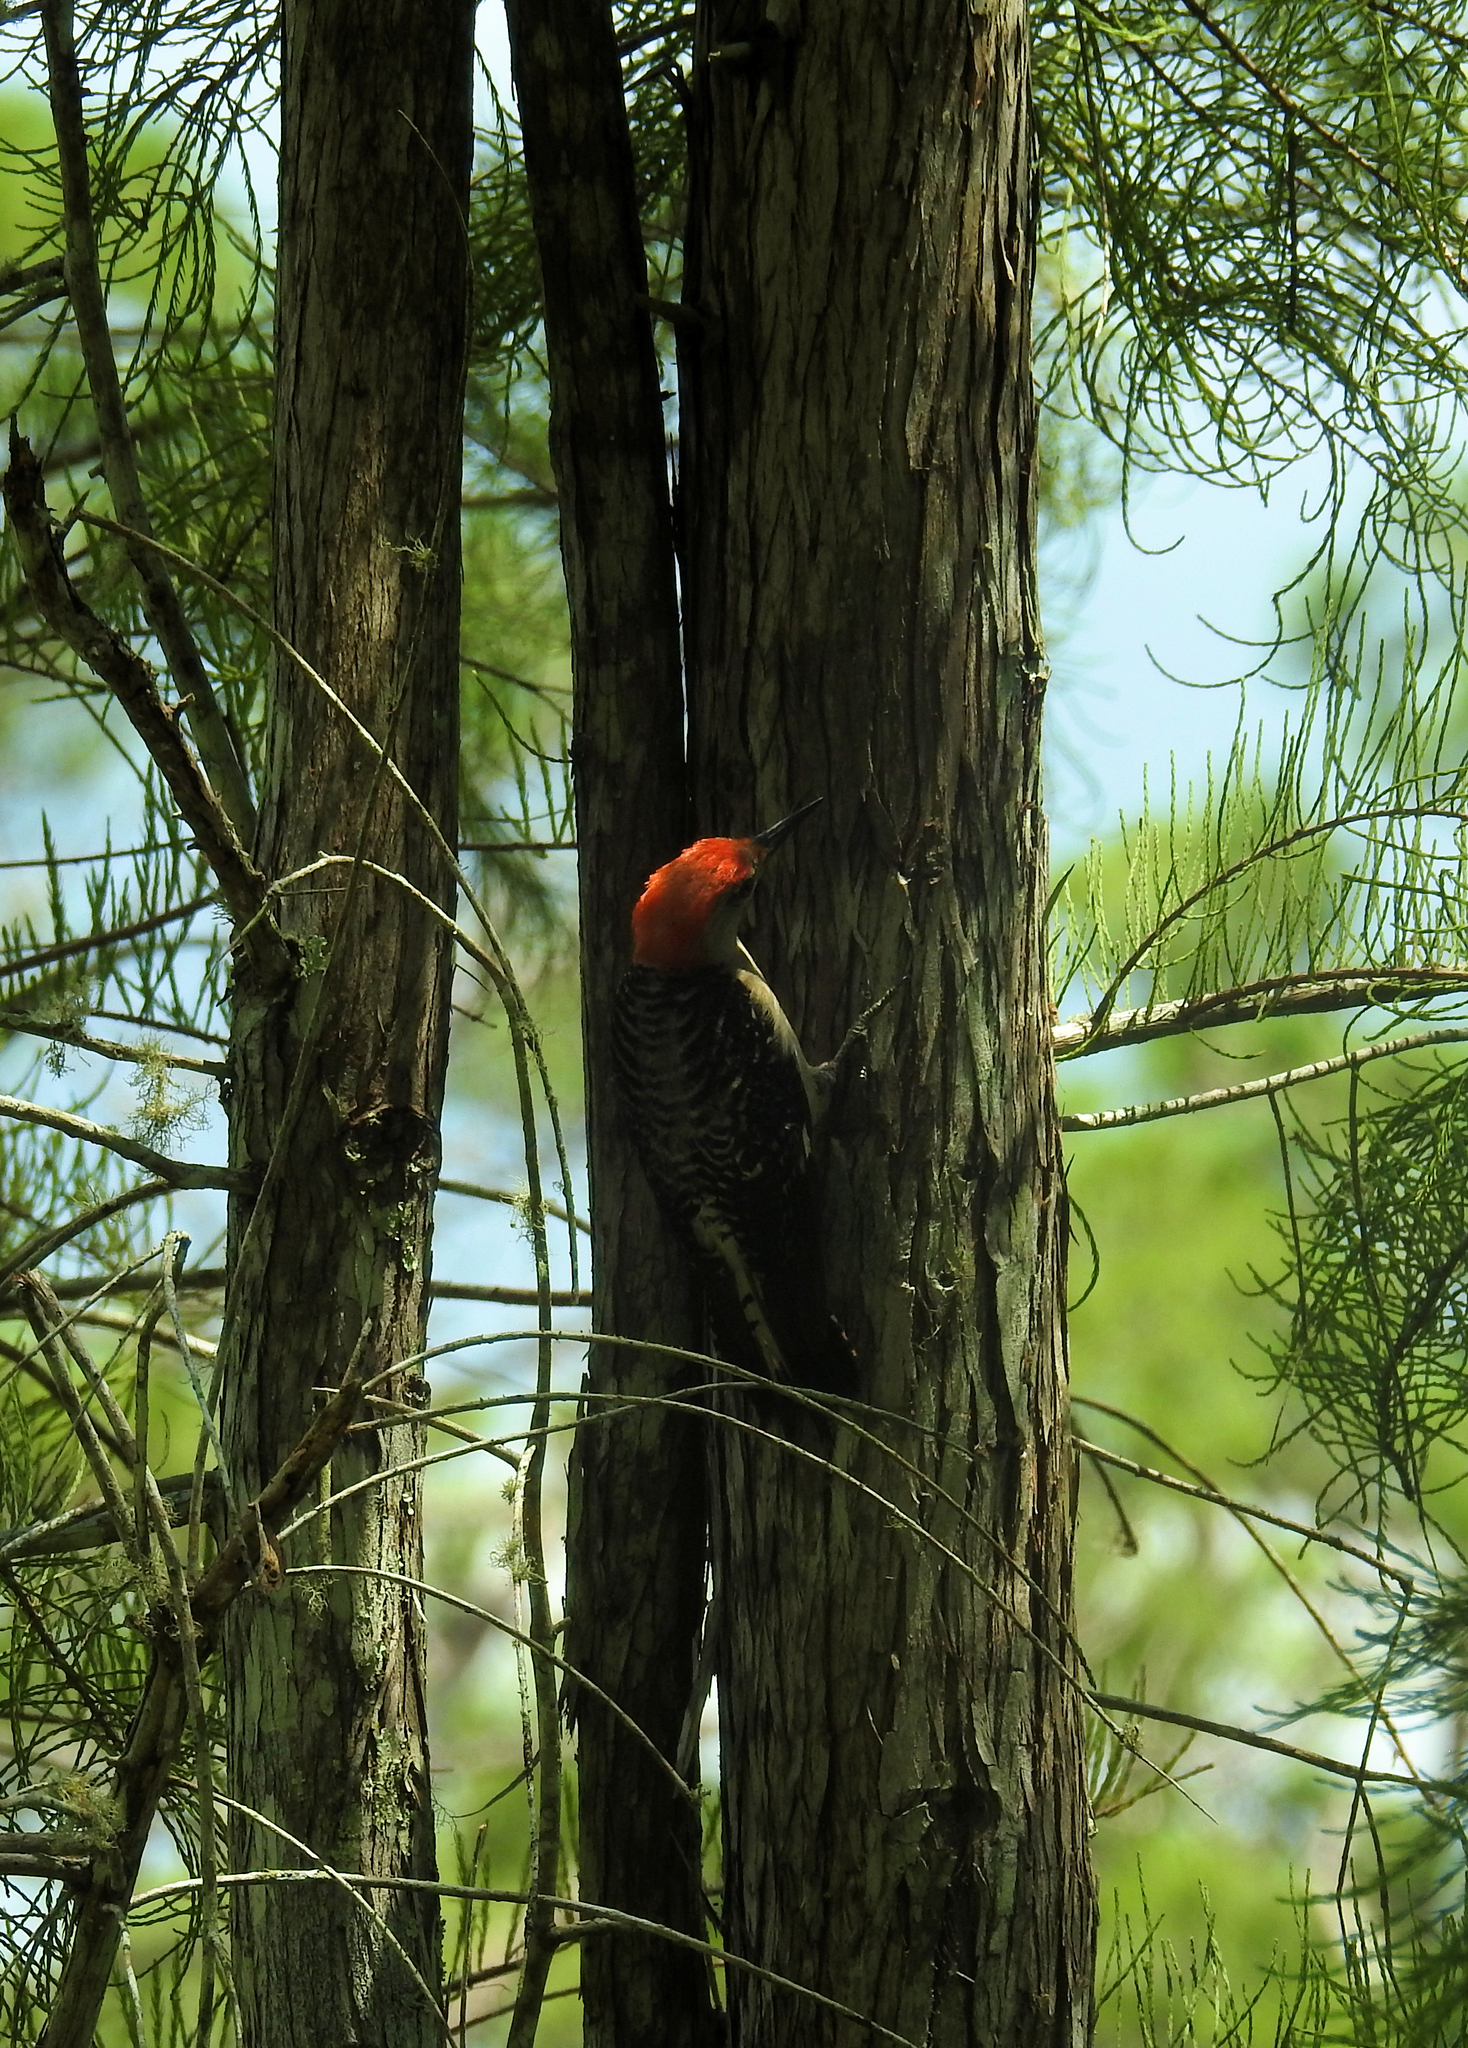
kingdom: Animalia
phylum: Chordata
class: Aves
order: Piciformes
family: Picidae
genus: Melanerpes
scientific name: Melanerpes carolinus
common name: Red-bellied woodpecker
